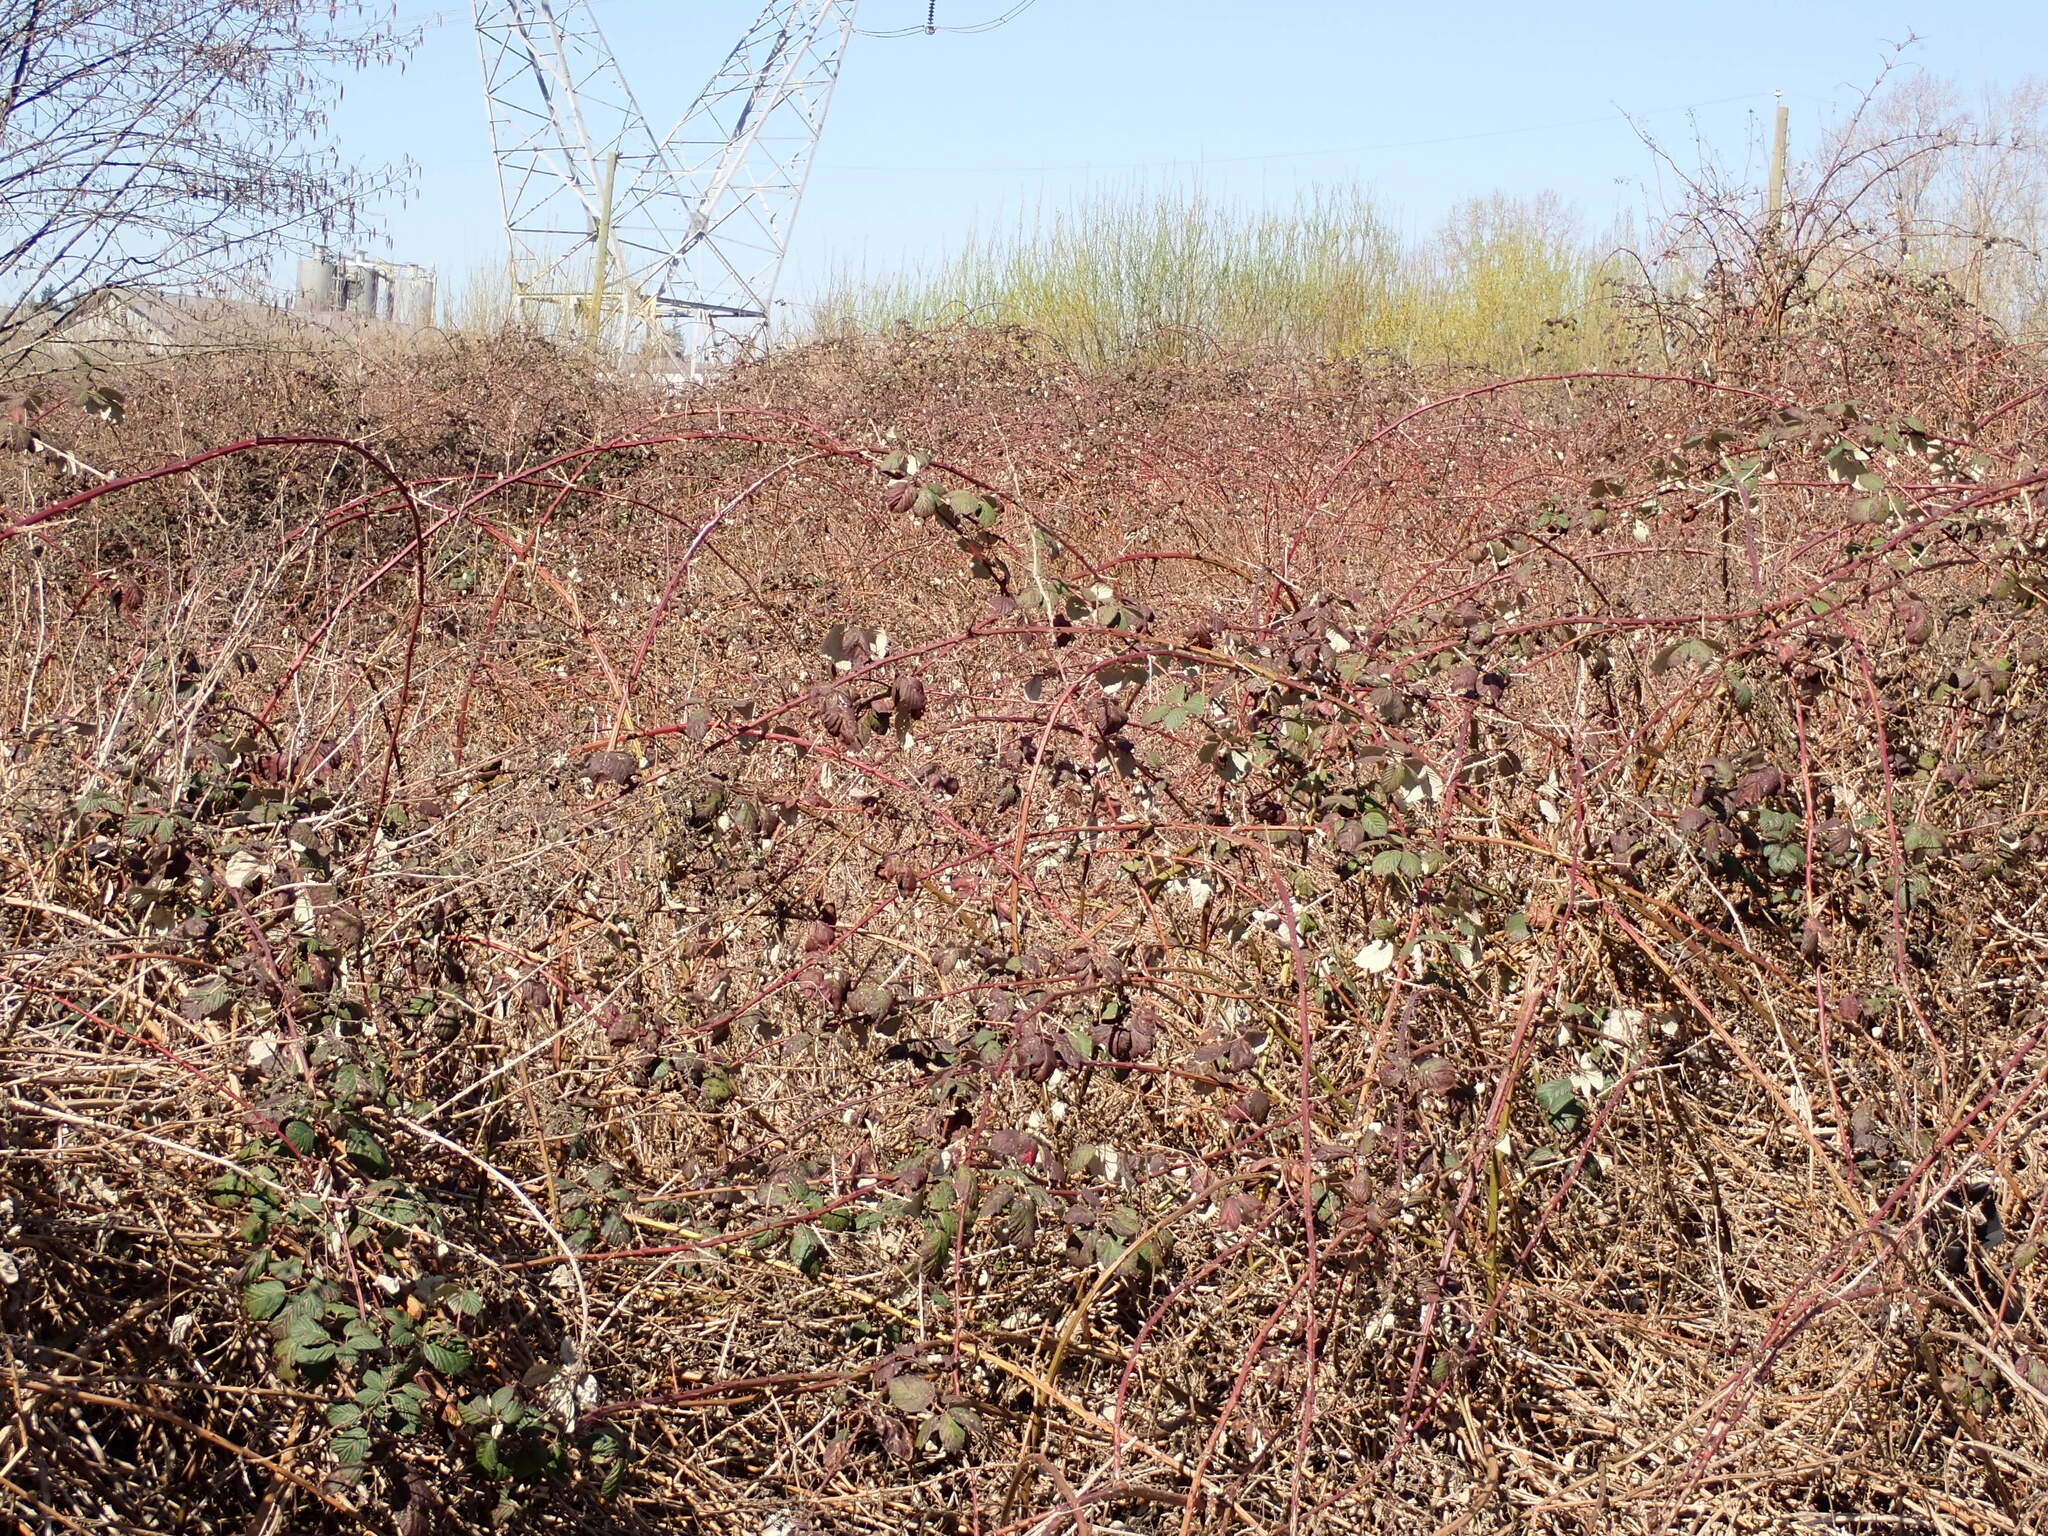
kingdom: Plantae
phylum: Tracheophyta
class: Magnoliopsida
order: Rosales
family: Rosaceae
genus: Rubus
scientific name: Rubus bifrons
